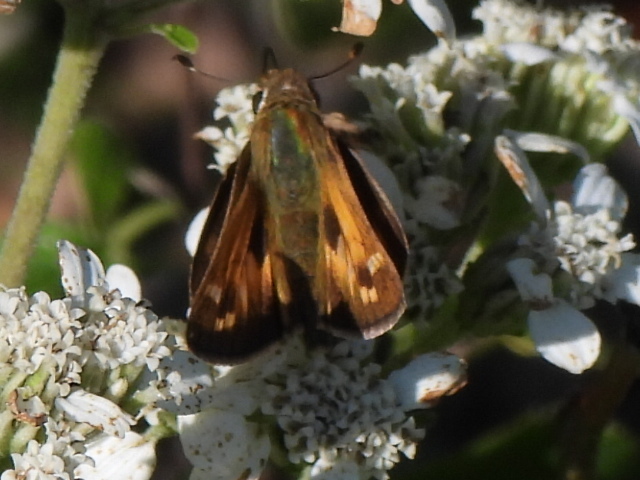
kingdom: Animalia
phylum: Arthropoda
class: Insecta
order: Lepidoptera
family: Hesperiidae
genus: Atalopedes
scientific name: Atalopedes
